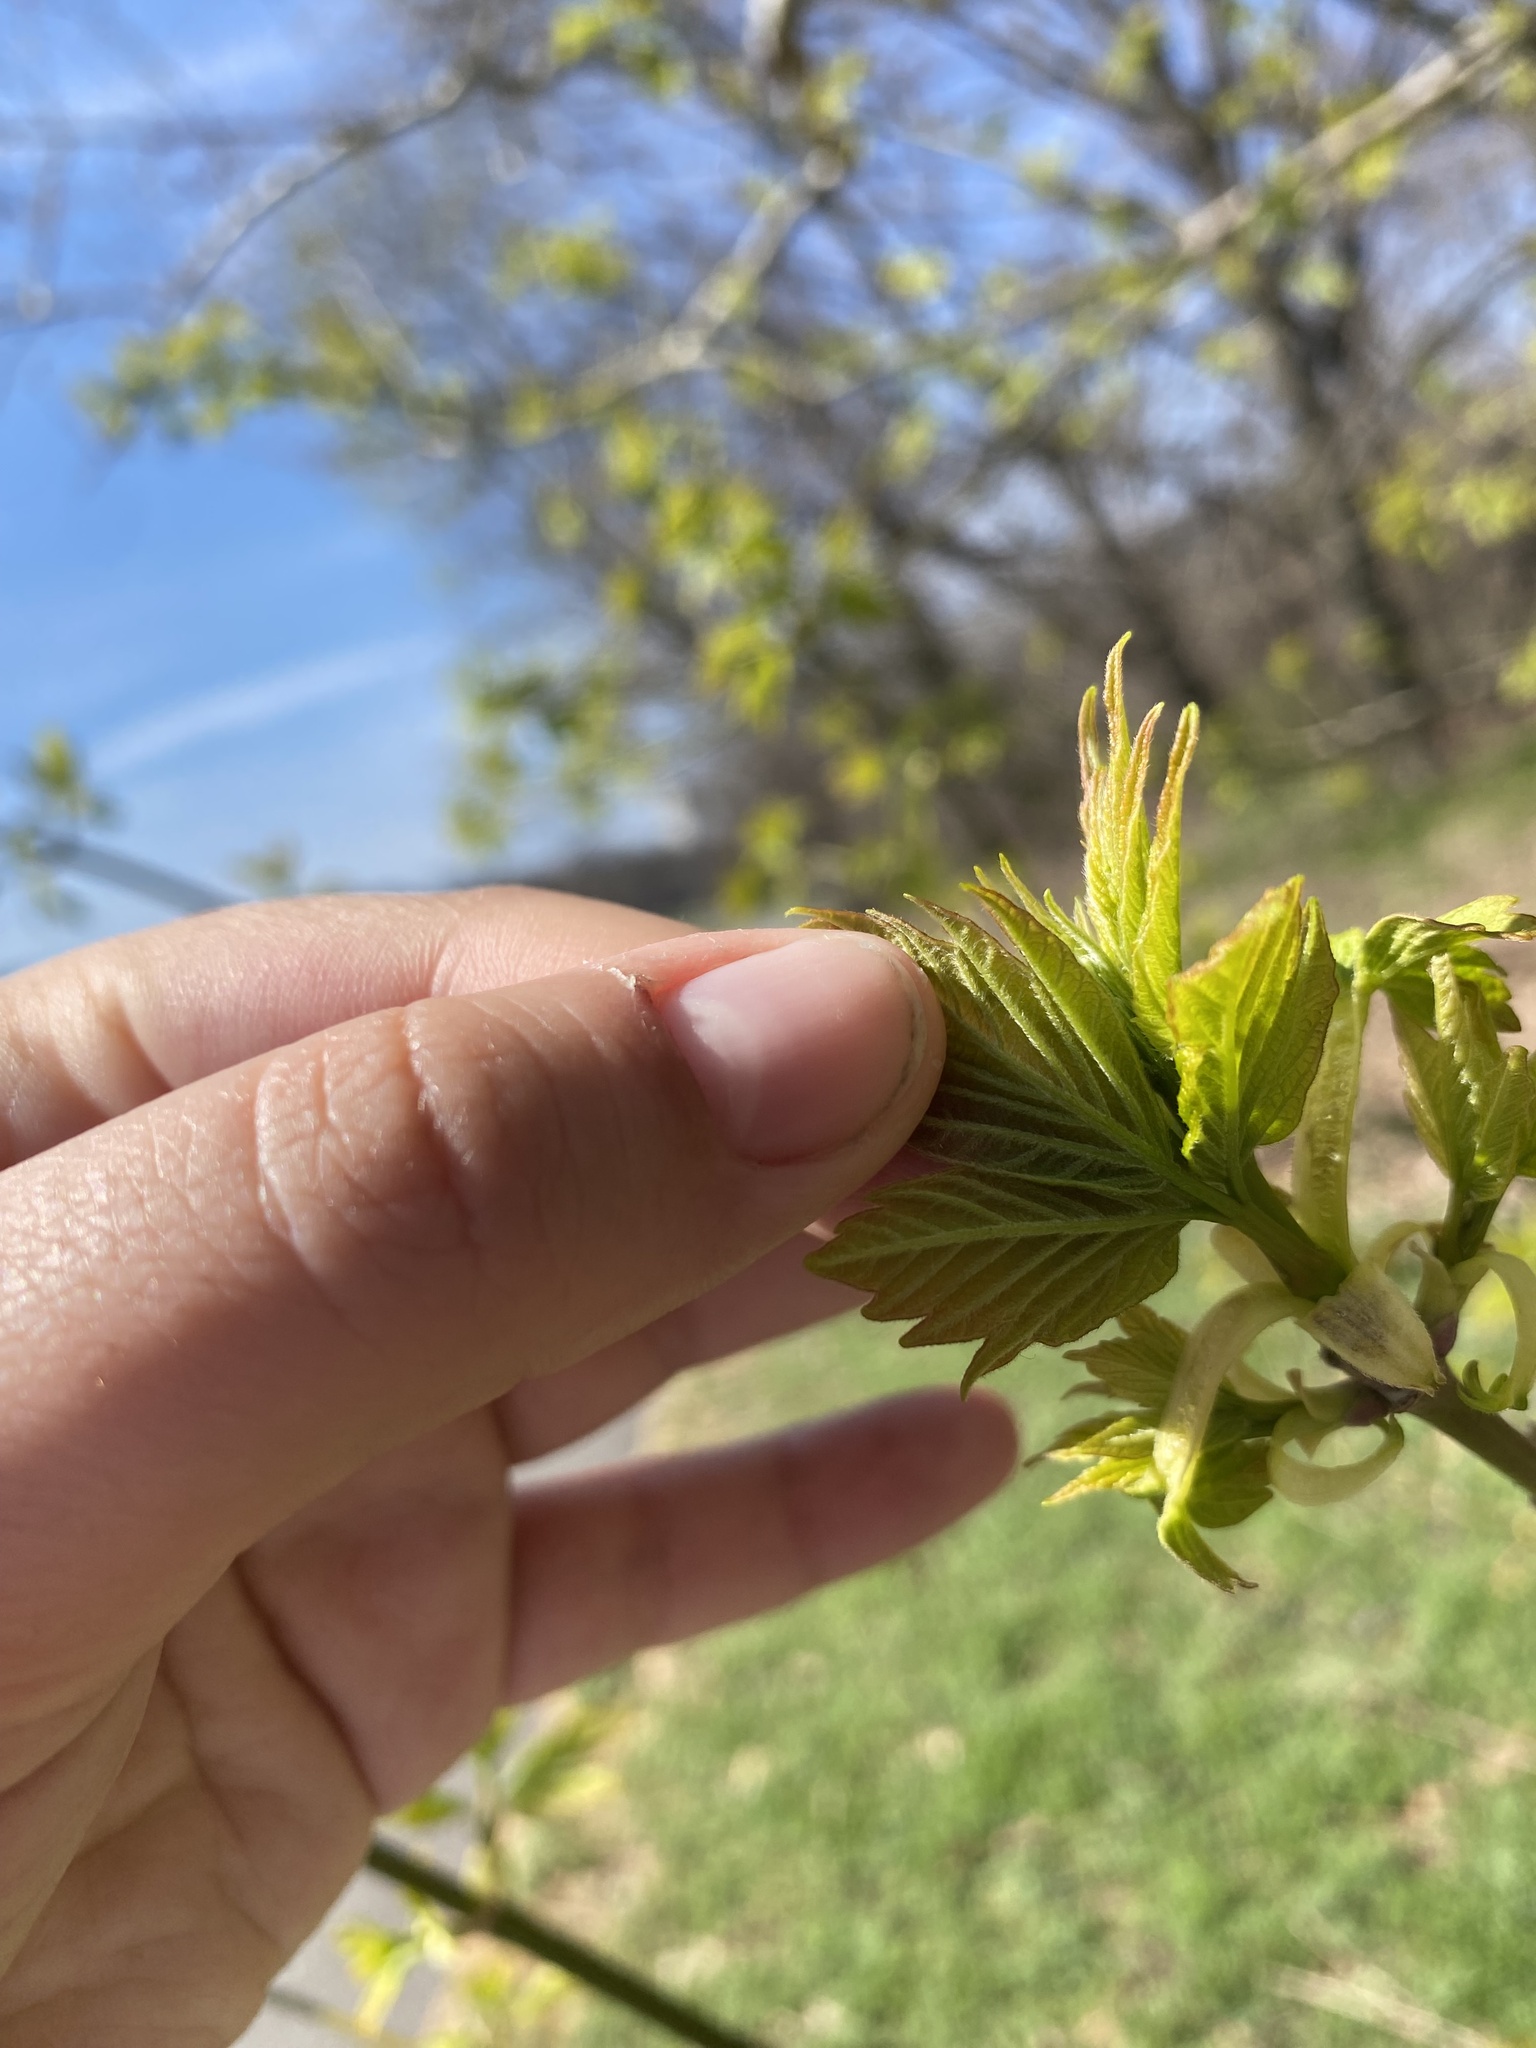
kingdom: Plantae
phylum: Tracheophyta
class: Magnoliopsida
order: Sapindales
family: Sapindaceae
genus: Acer
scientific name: Acer negundo
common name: Ashleaf maple
